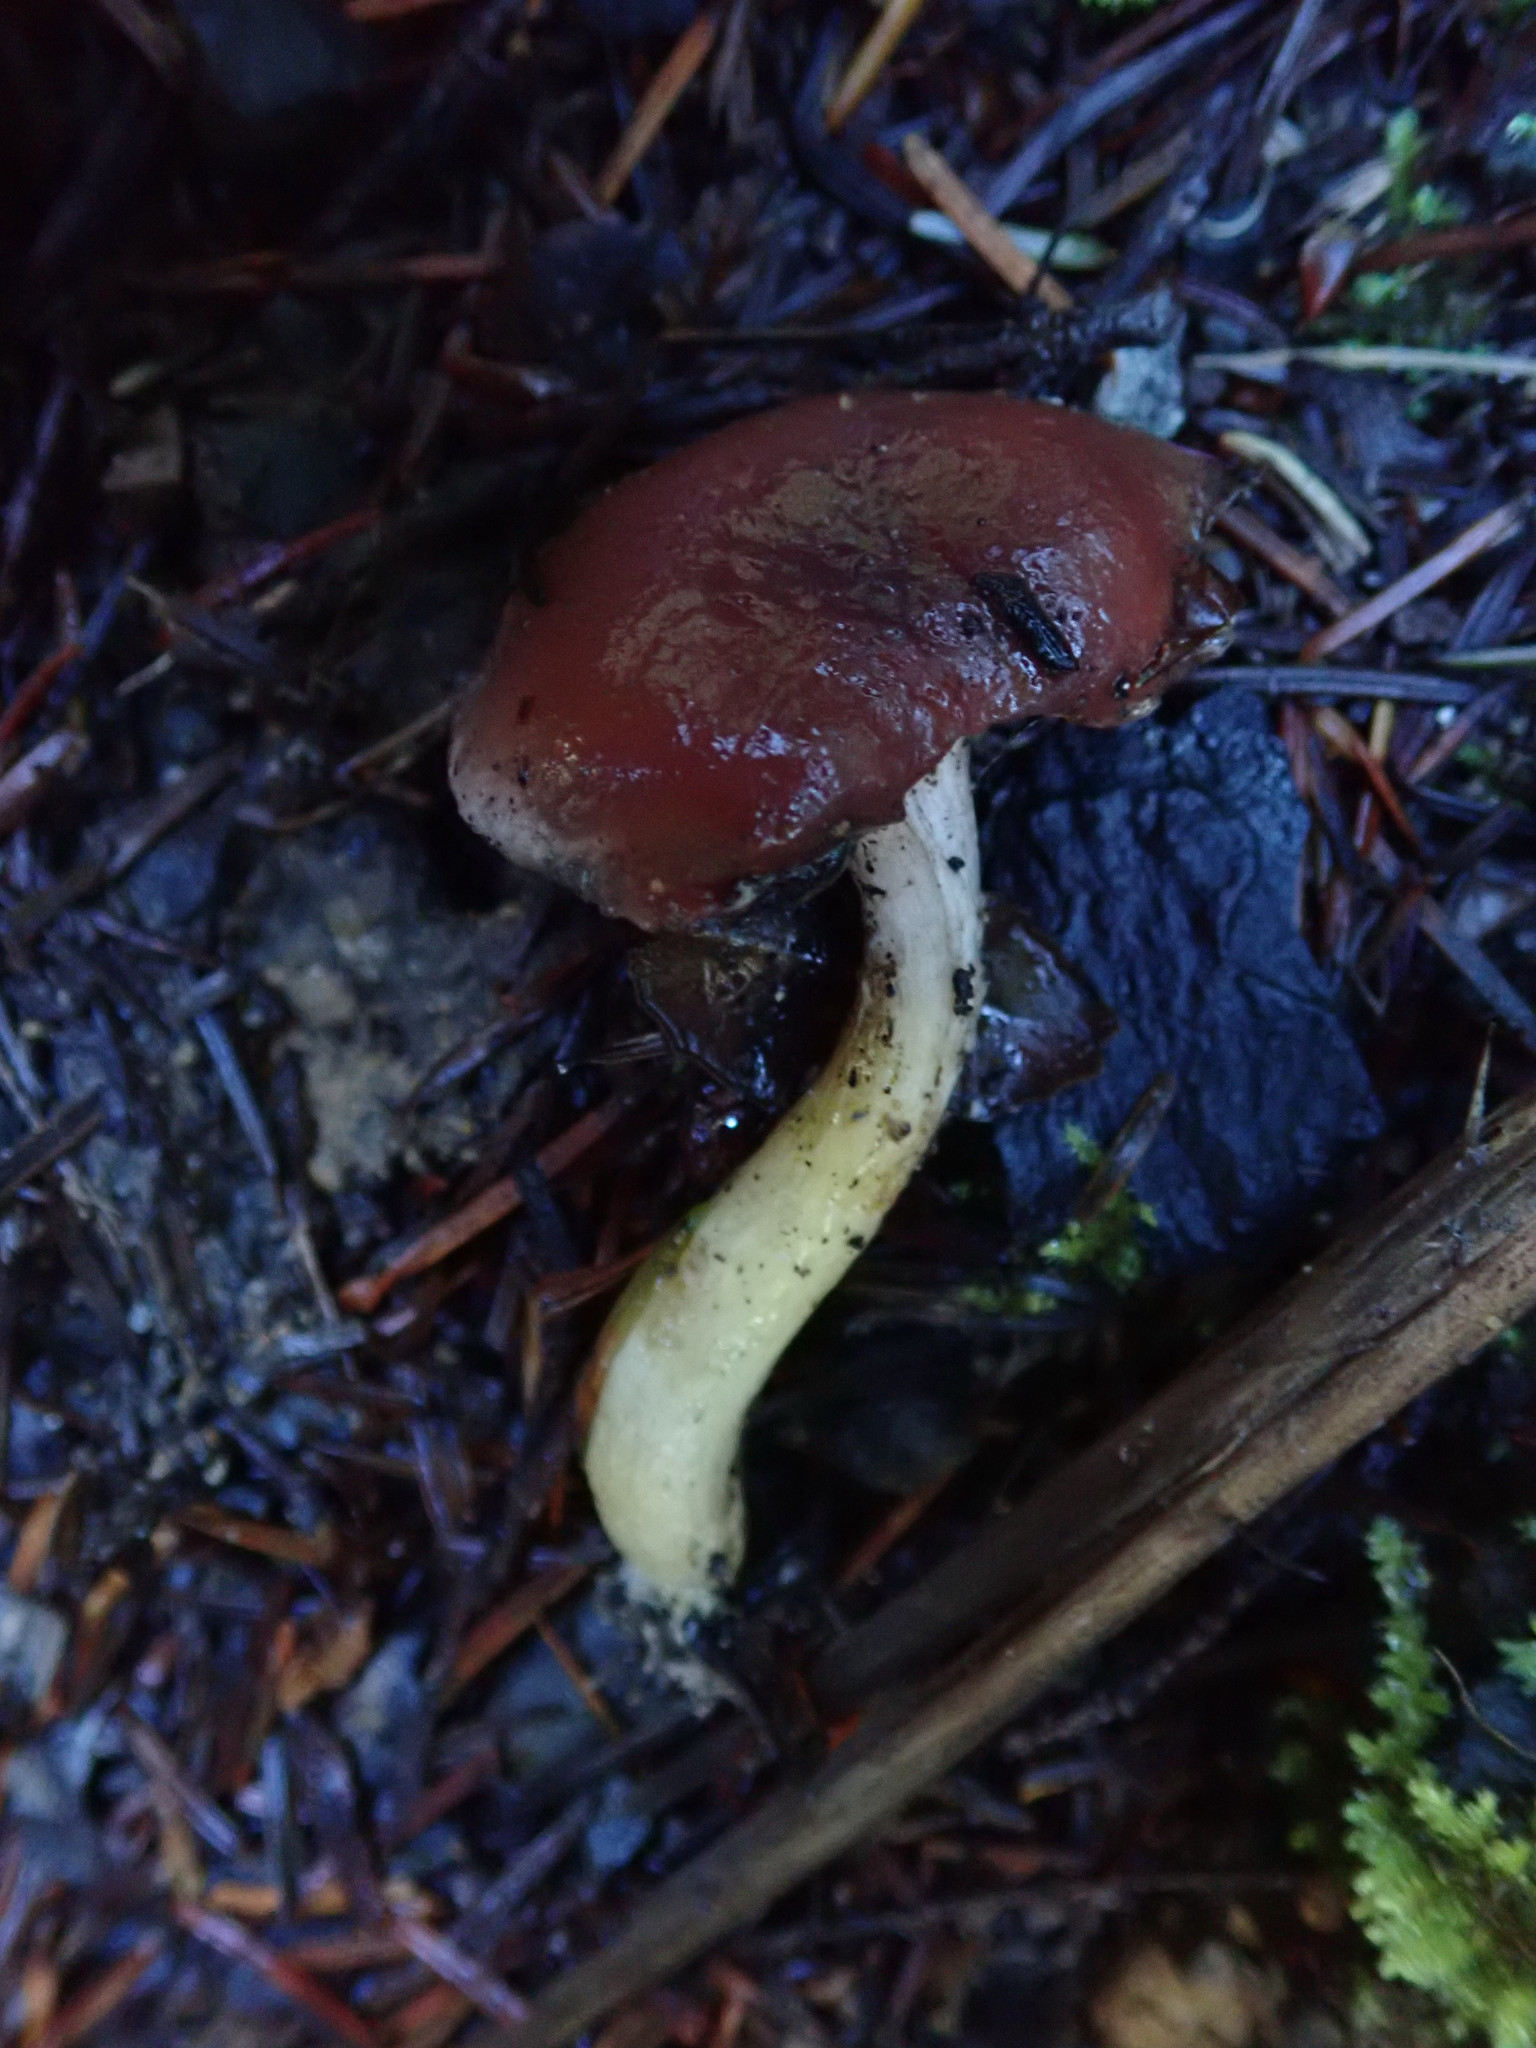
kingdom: Fungi
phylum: Basidiomycota
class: Agaricomycetes
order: Boletales
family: Gomphidiaceae
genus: Gomphidius
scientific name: Gomphidius subroseus
